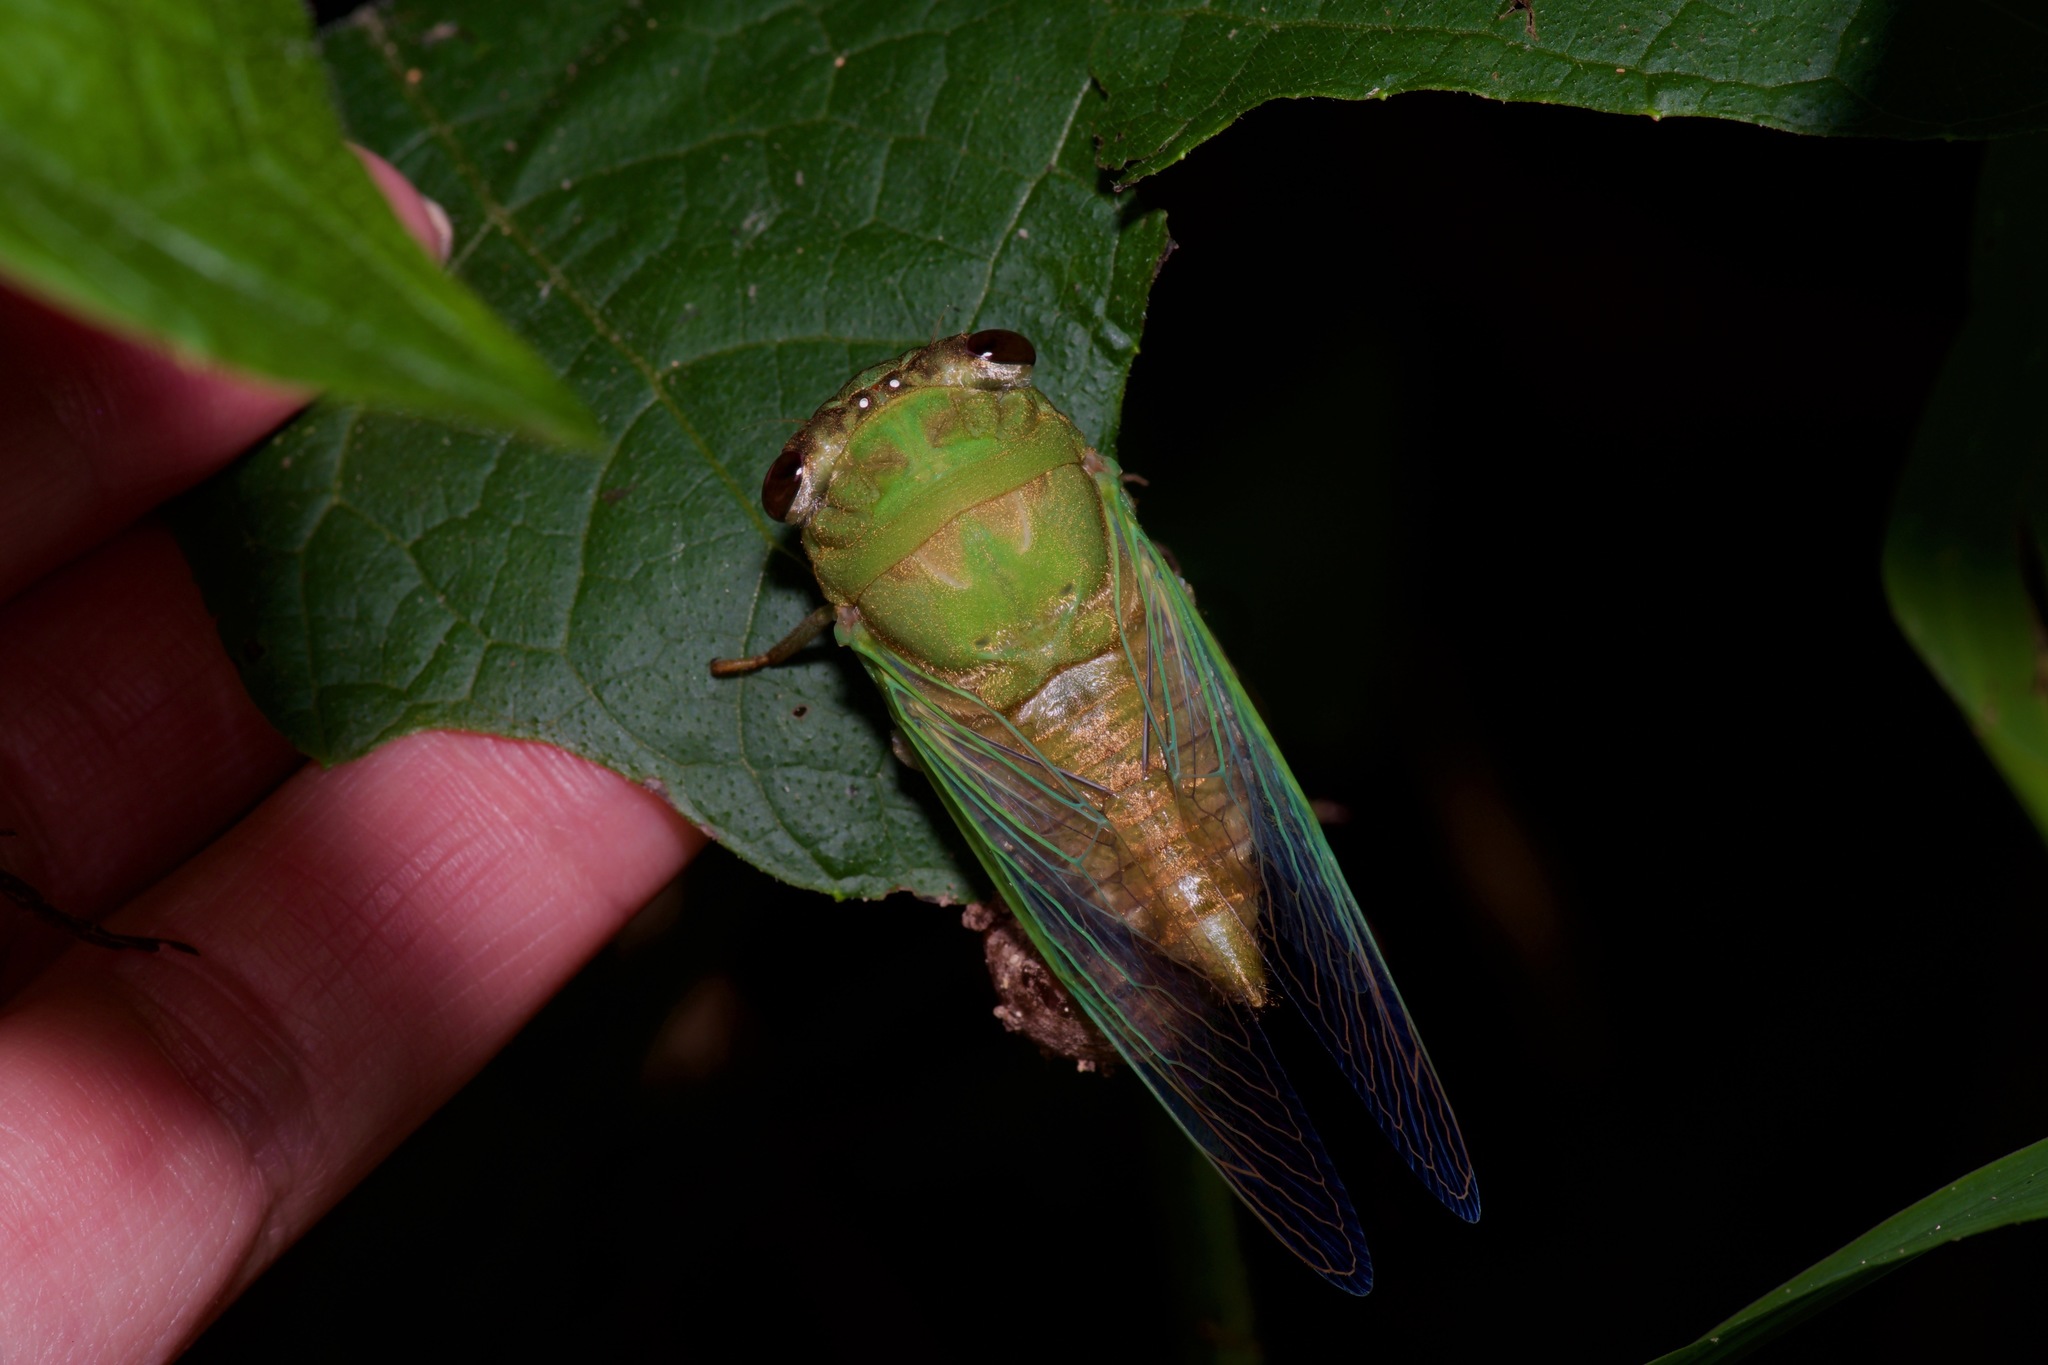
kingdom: Animalia
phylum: Arthropoda
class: Insecta
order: Hemiptera
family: Cicadidae
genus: Neotibicen
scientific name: Neotibicen superbus
